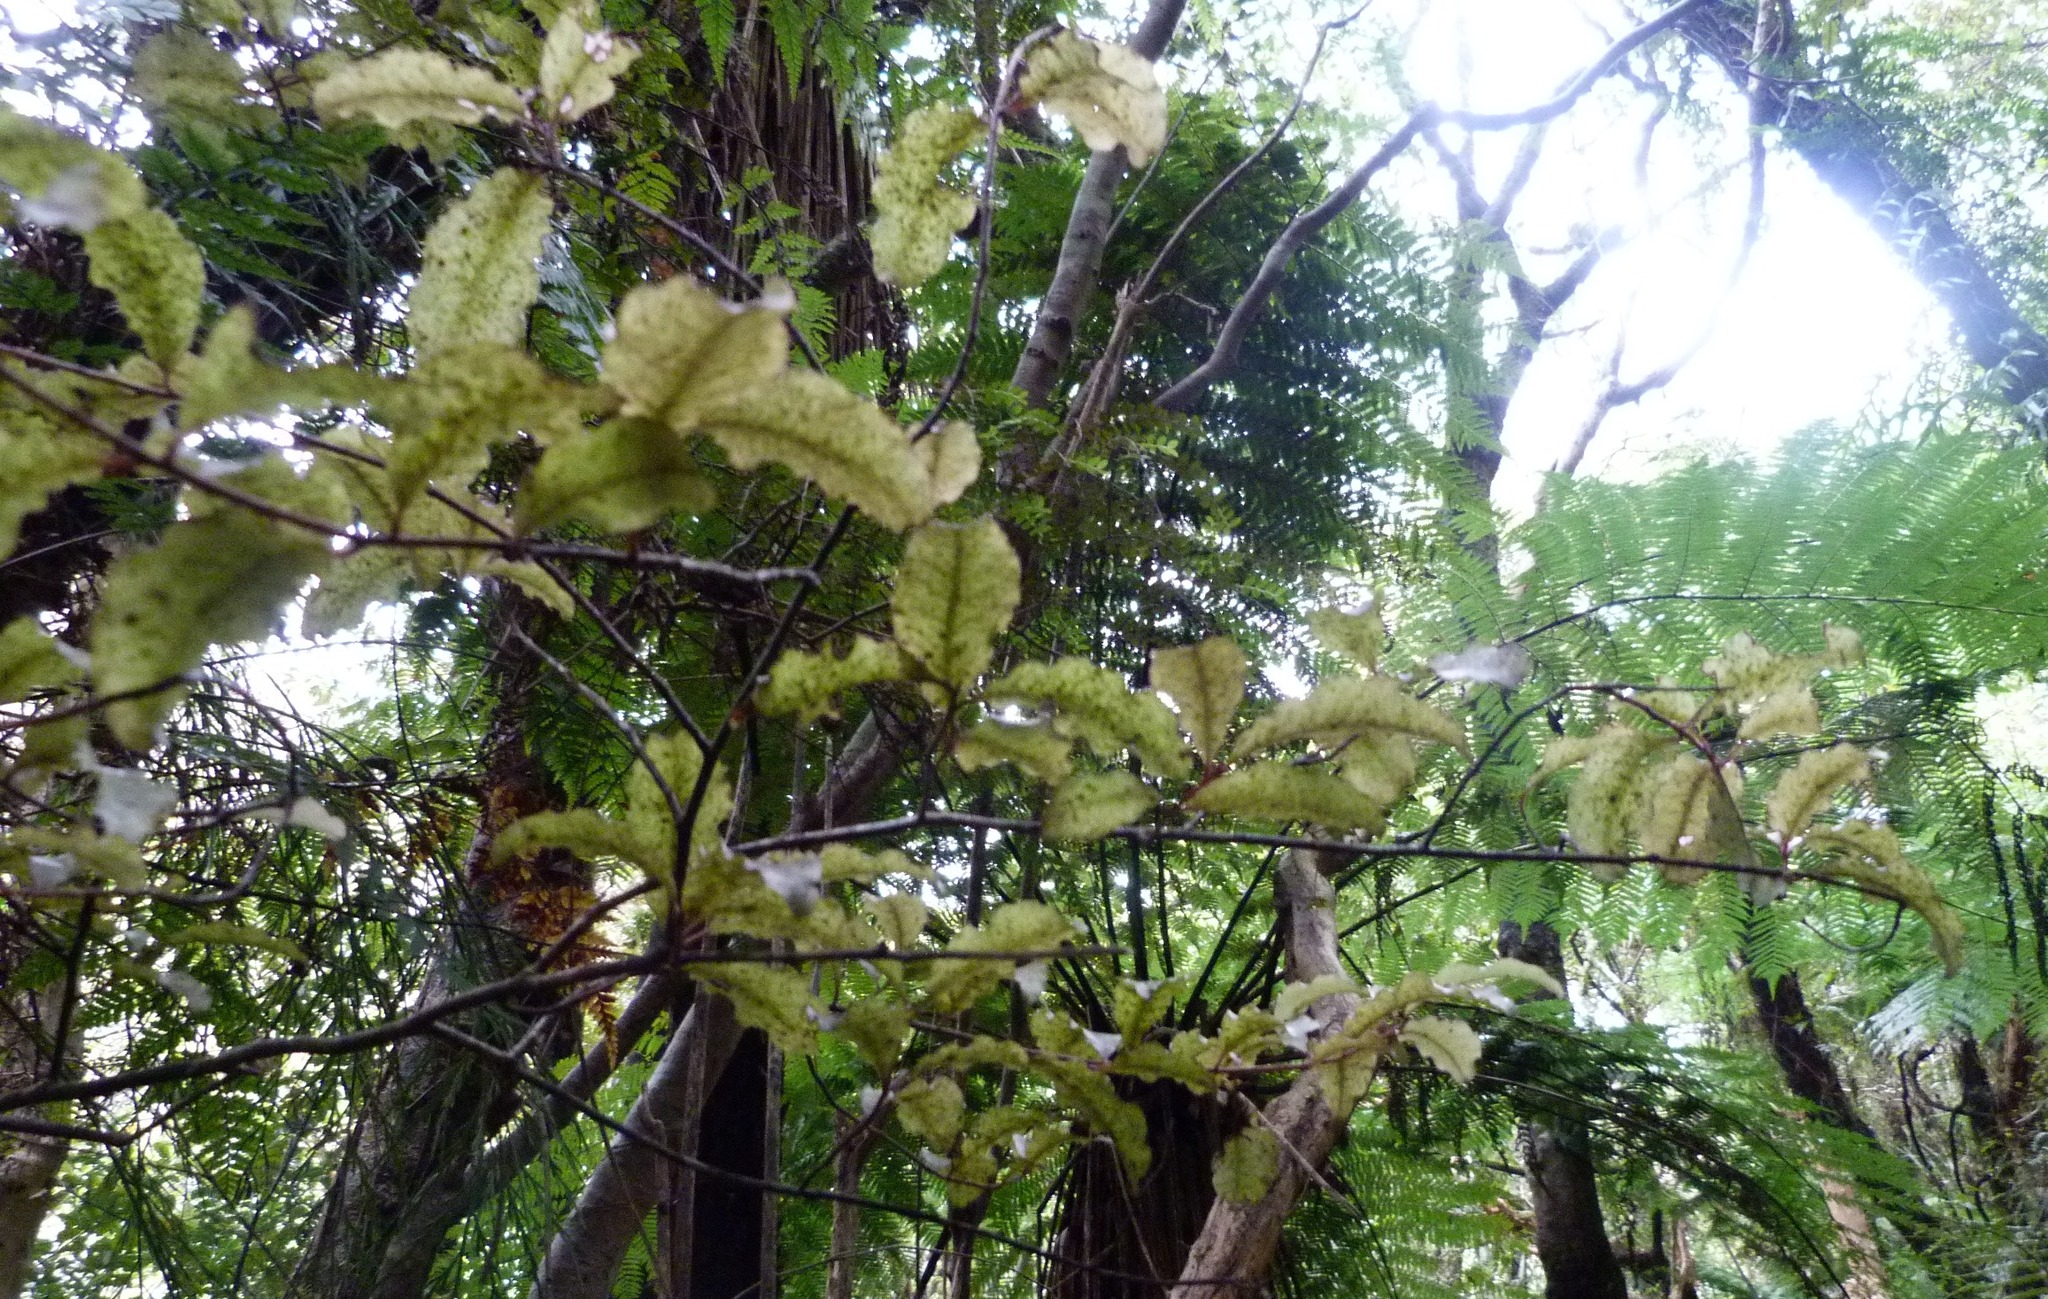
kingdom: Plantae
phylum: Tracheophyta
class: Magnoliopsida
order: Ericales
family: Primulaceae
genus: Myrsine
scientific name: Myrsine australis
